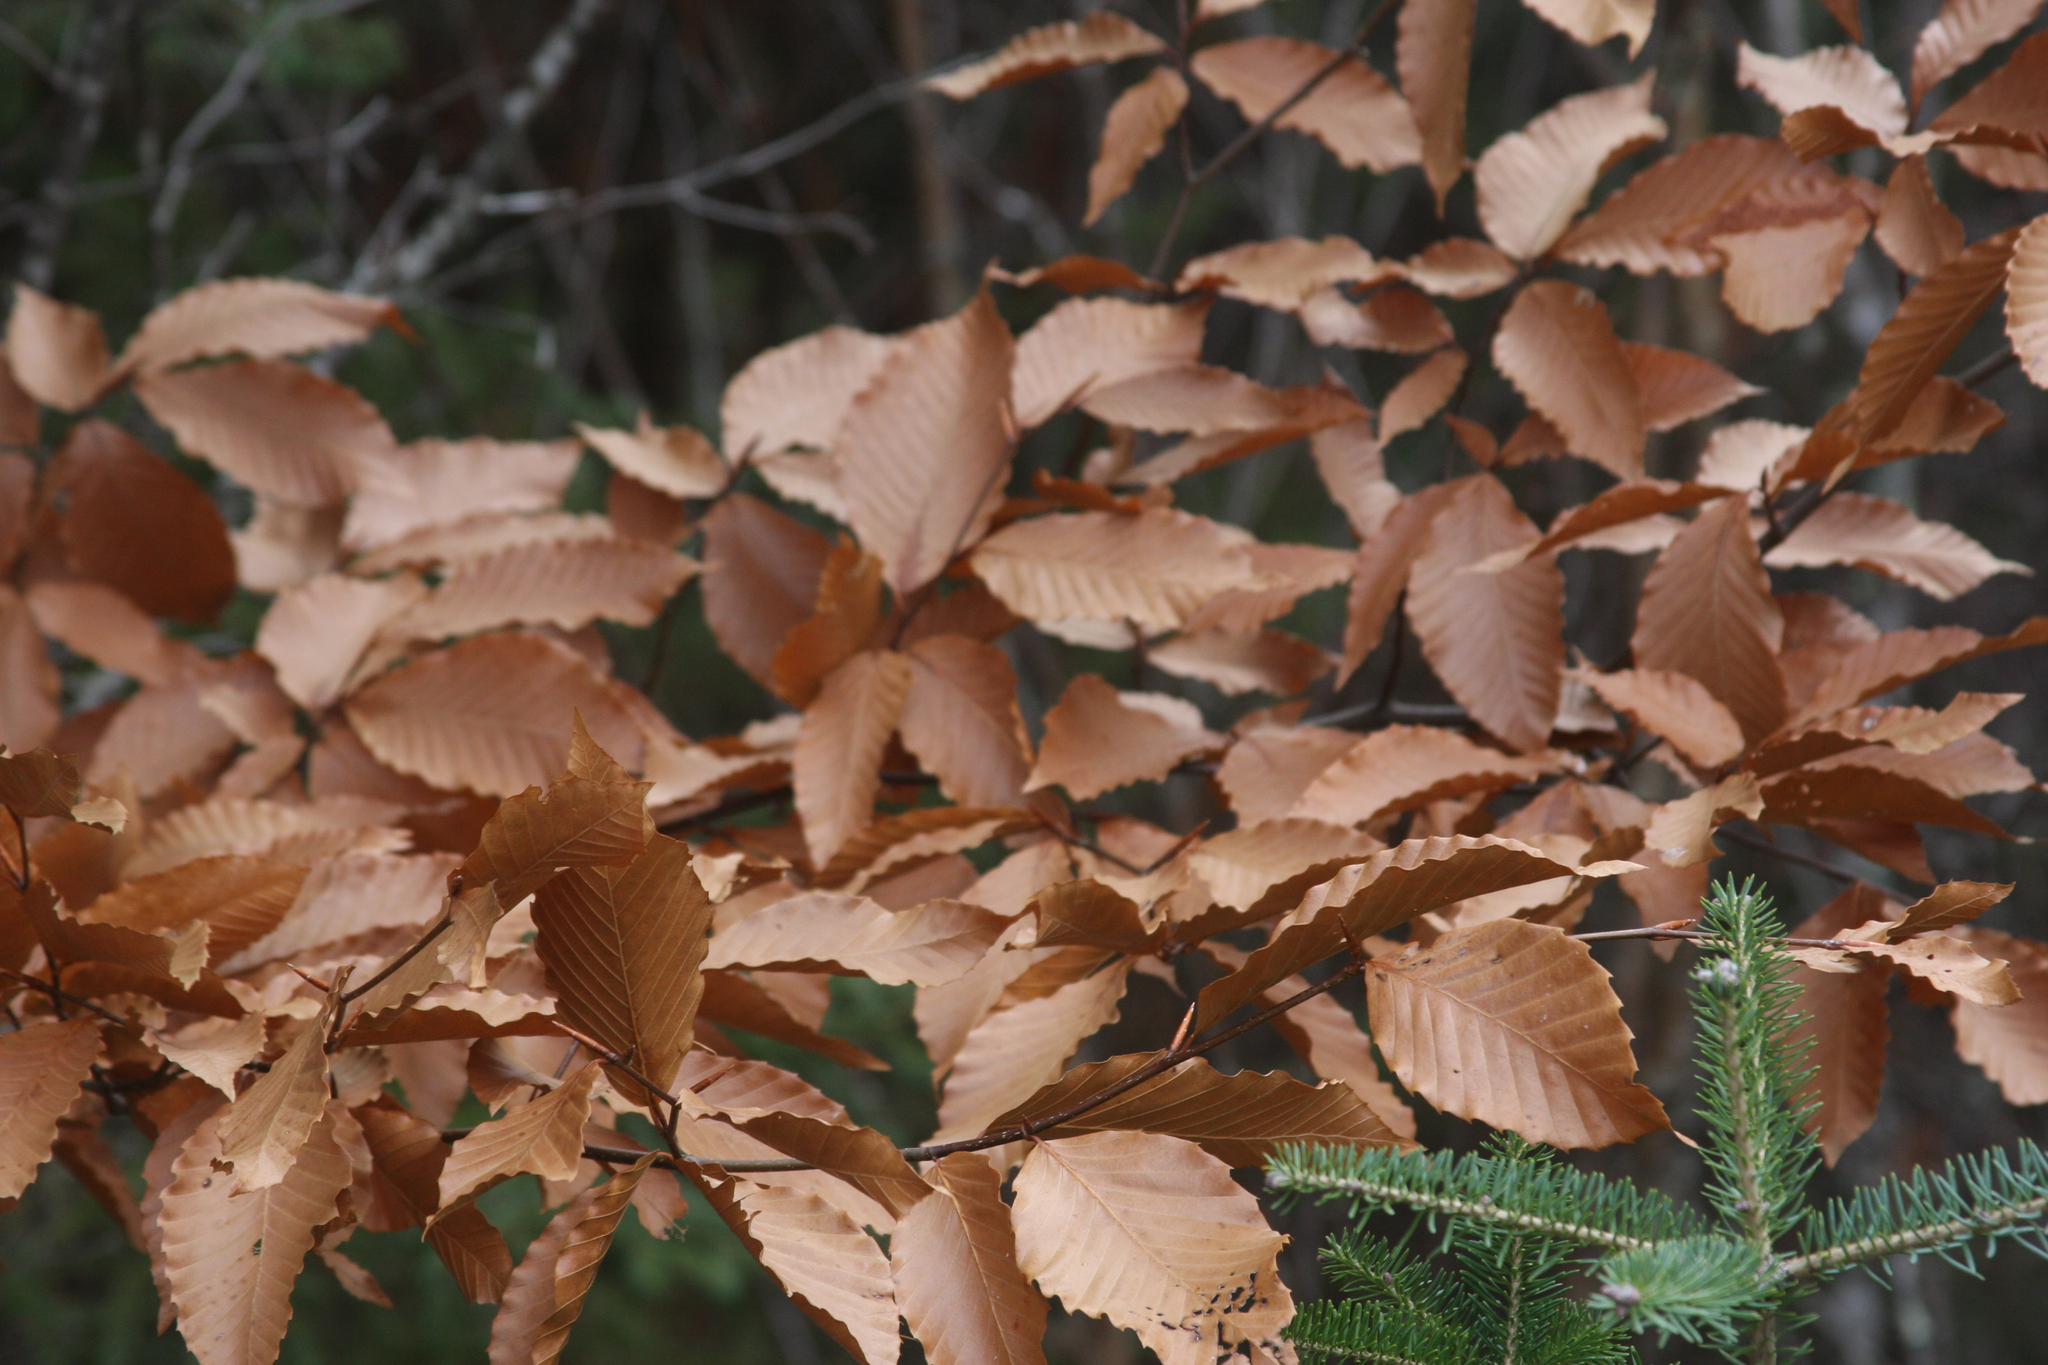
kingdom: Plantae
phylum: Tracheophyta
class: Magnoliopsida
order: Fagales
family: Fagaceae
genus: Fagus
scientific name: Fagus grandifolia
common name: American beech
